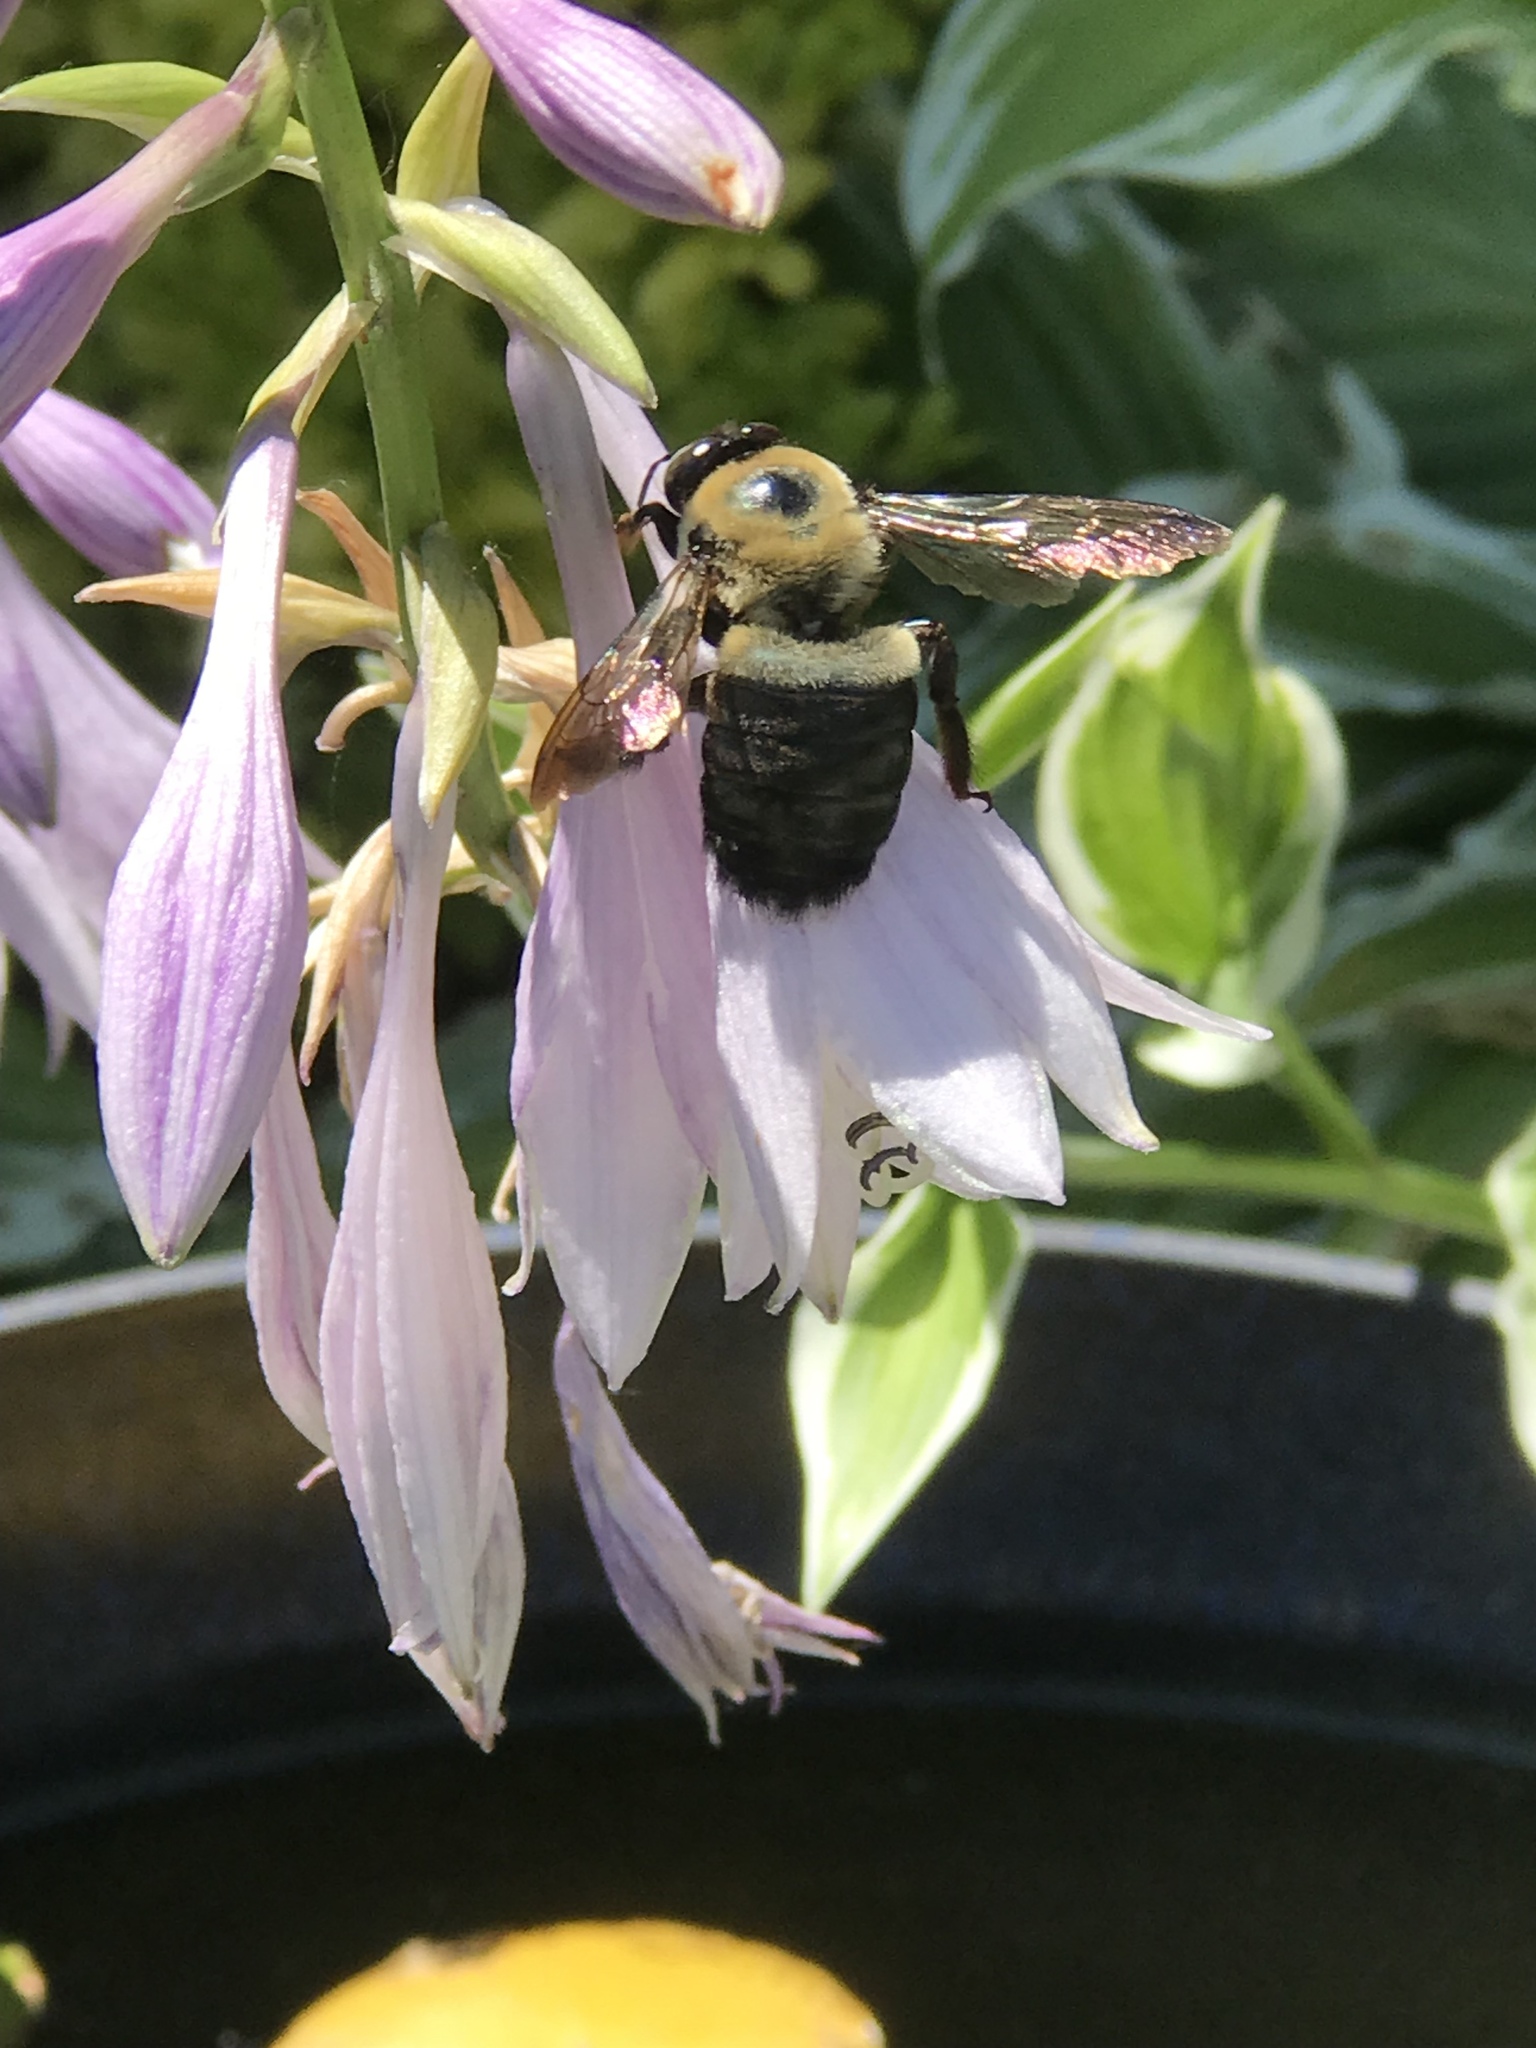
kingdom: Animalia
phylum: Arthropoda
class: Insecta
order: Hymenoptera
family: Apidae
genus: Xylocopa
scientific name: Xylocopa virginica
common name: Carpenter bee
